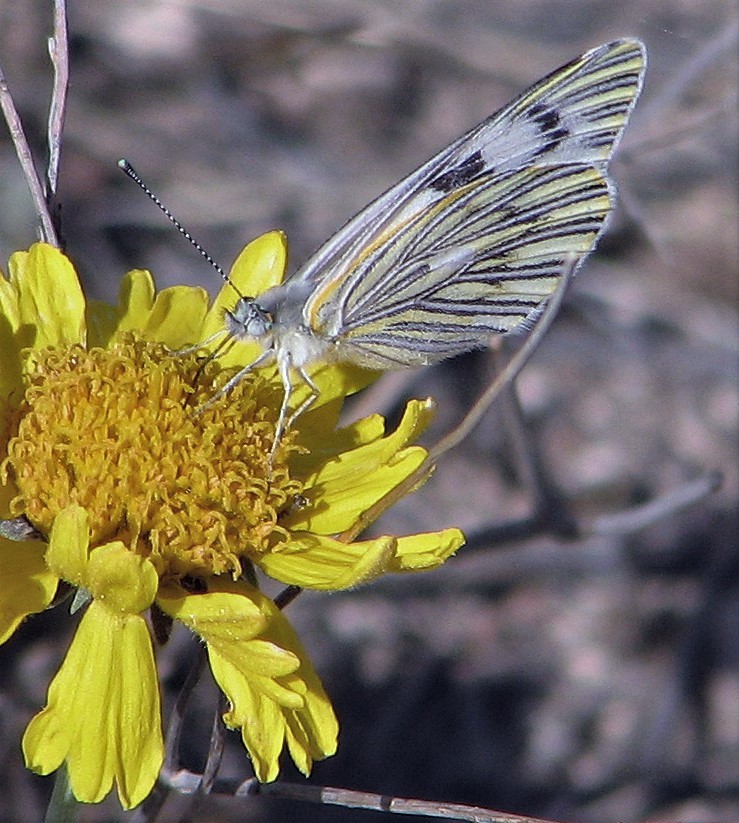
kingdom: Animalia
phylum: Arthropoda
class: Insecta
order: Lepidoptera
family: Pieridae
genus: Tatochila
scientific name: Tatochila mercedis
